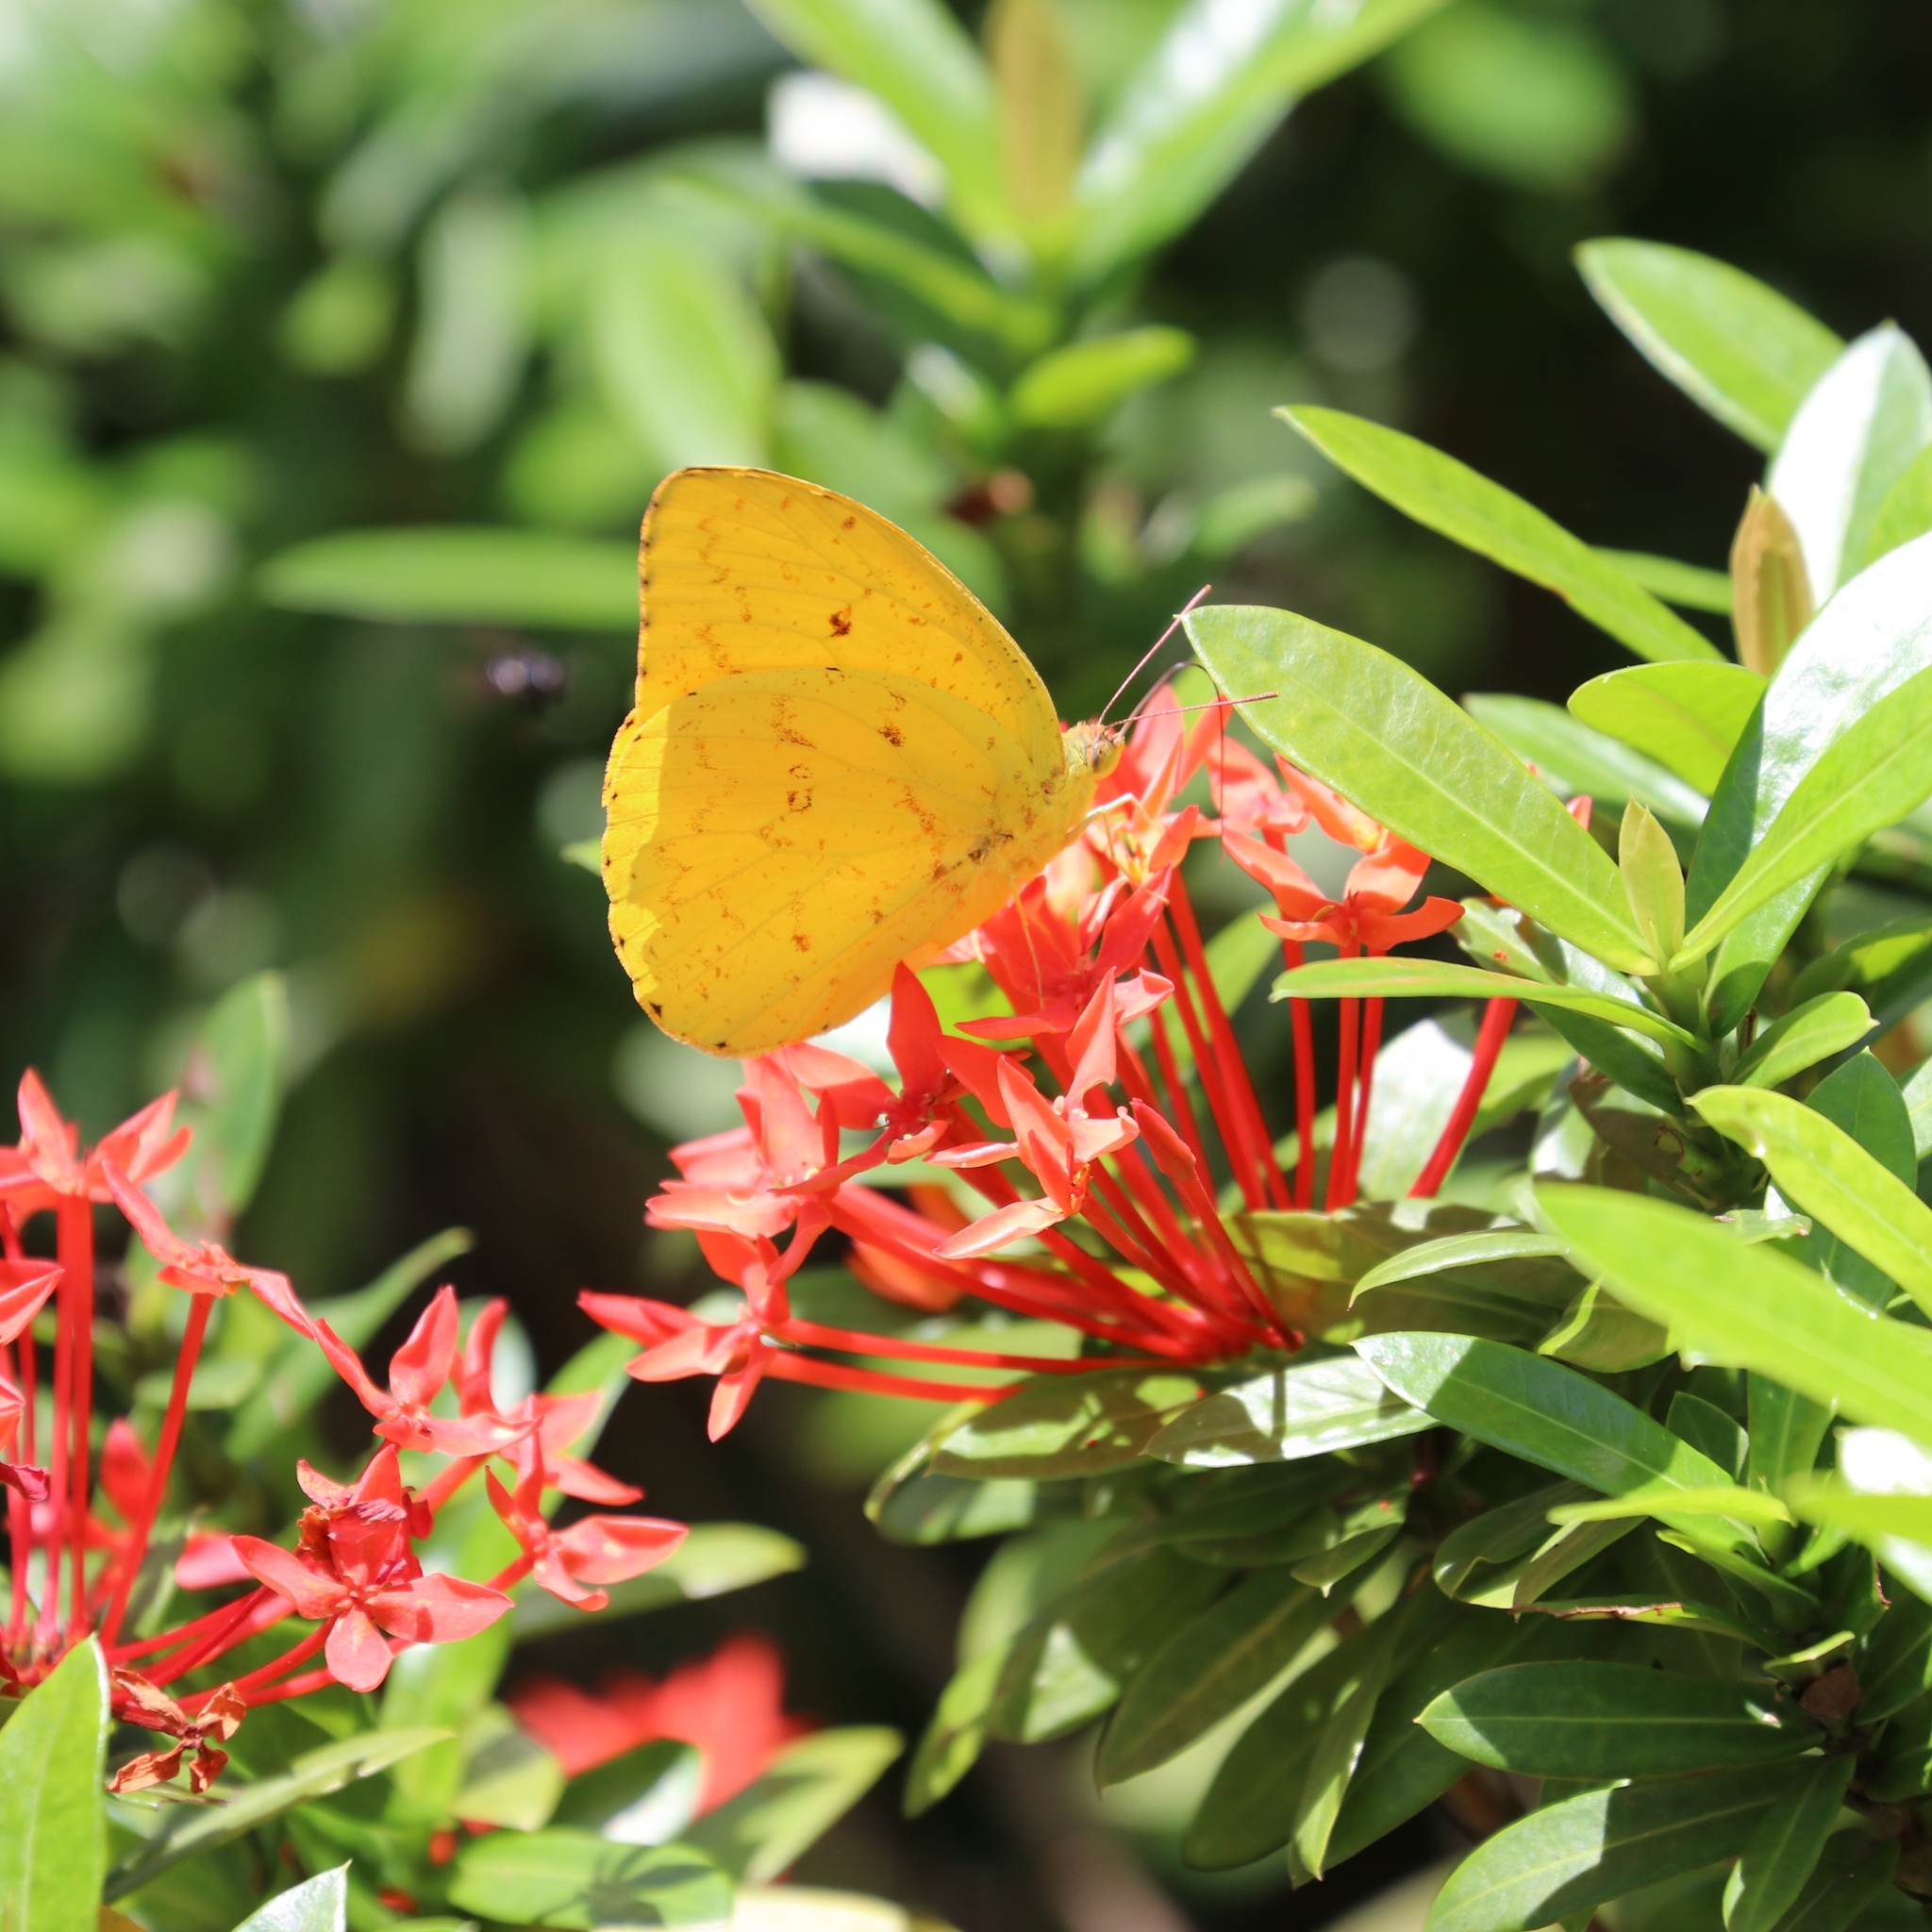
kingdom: Animalia
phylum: Arthropoda
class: Insecta
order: Lepidoptera
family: Pieridae
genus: Phoebis
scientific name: Phoebis argante
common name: Apricot sulphur
